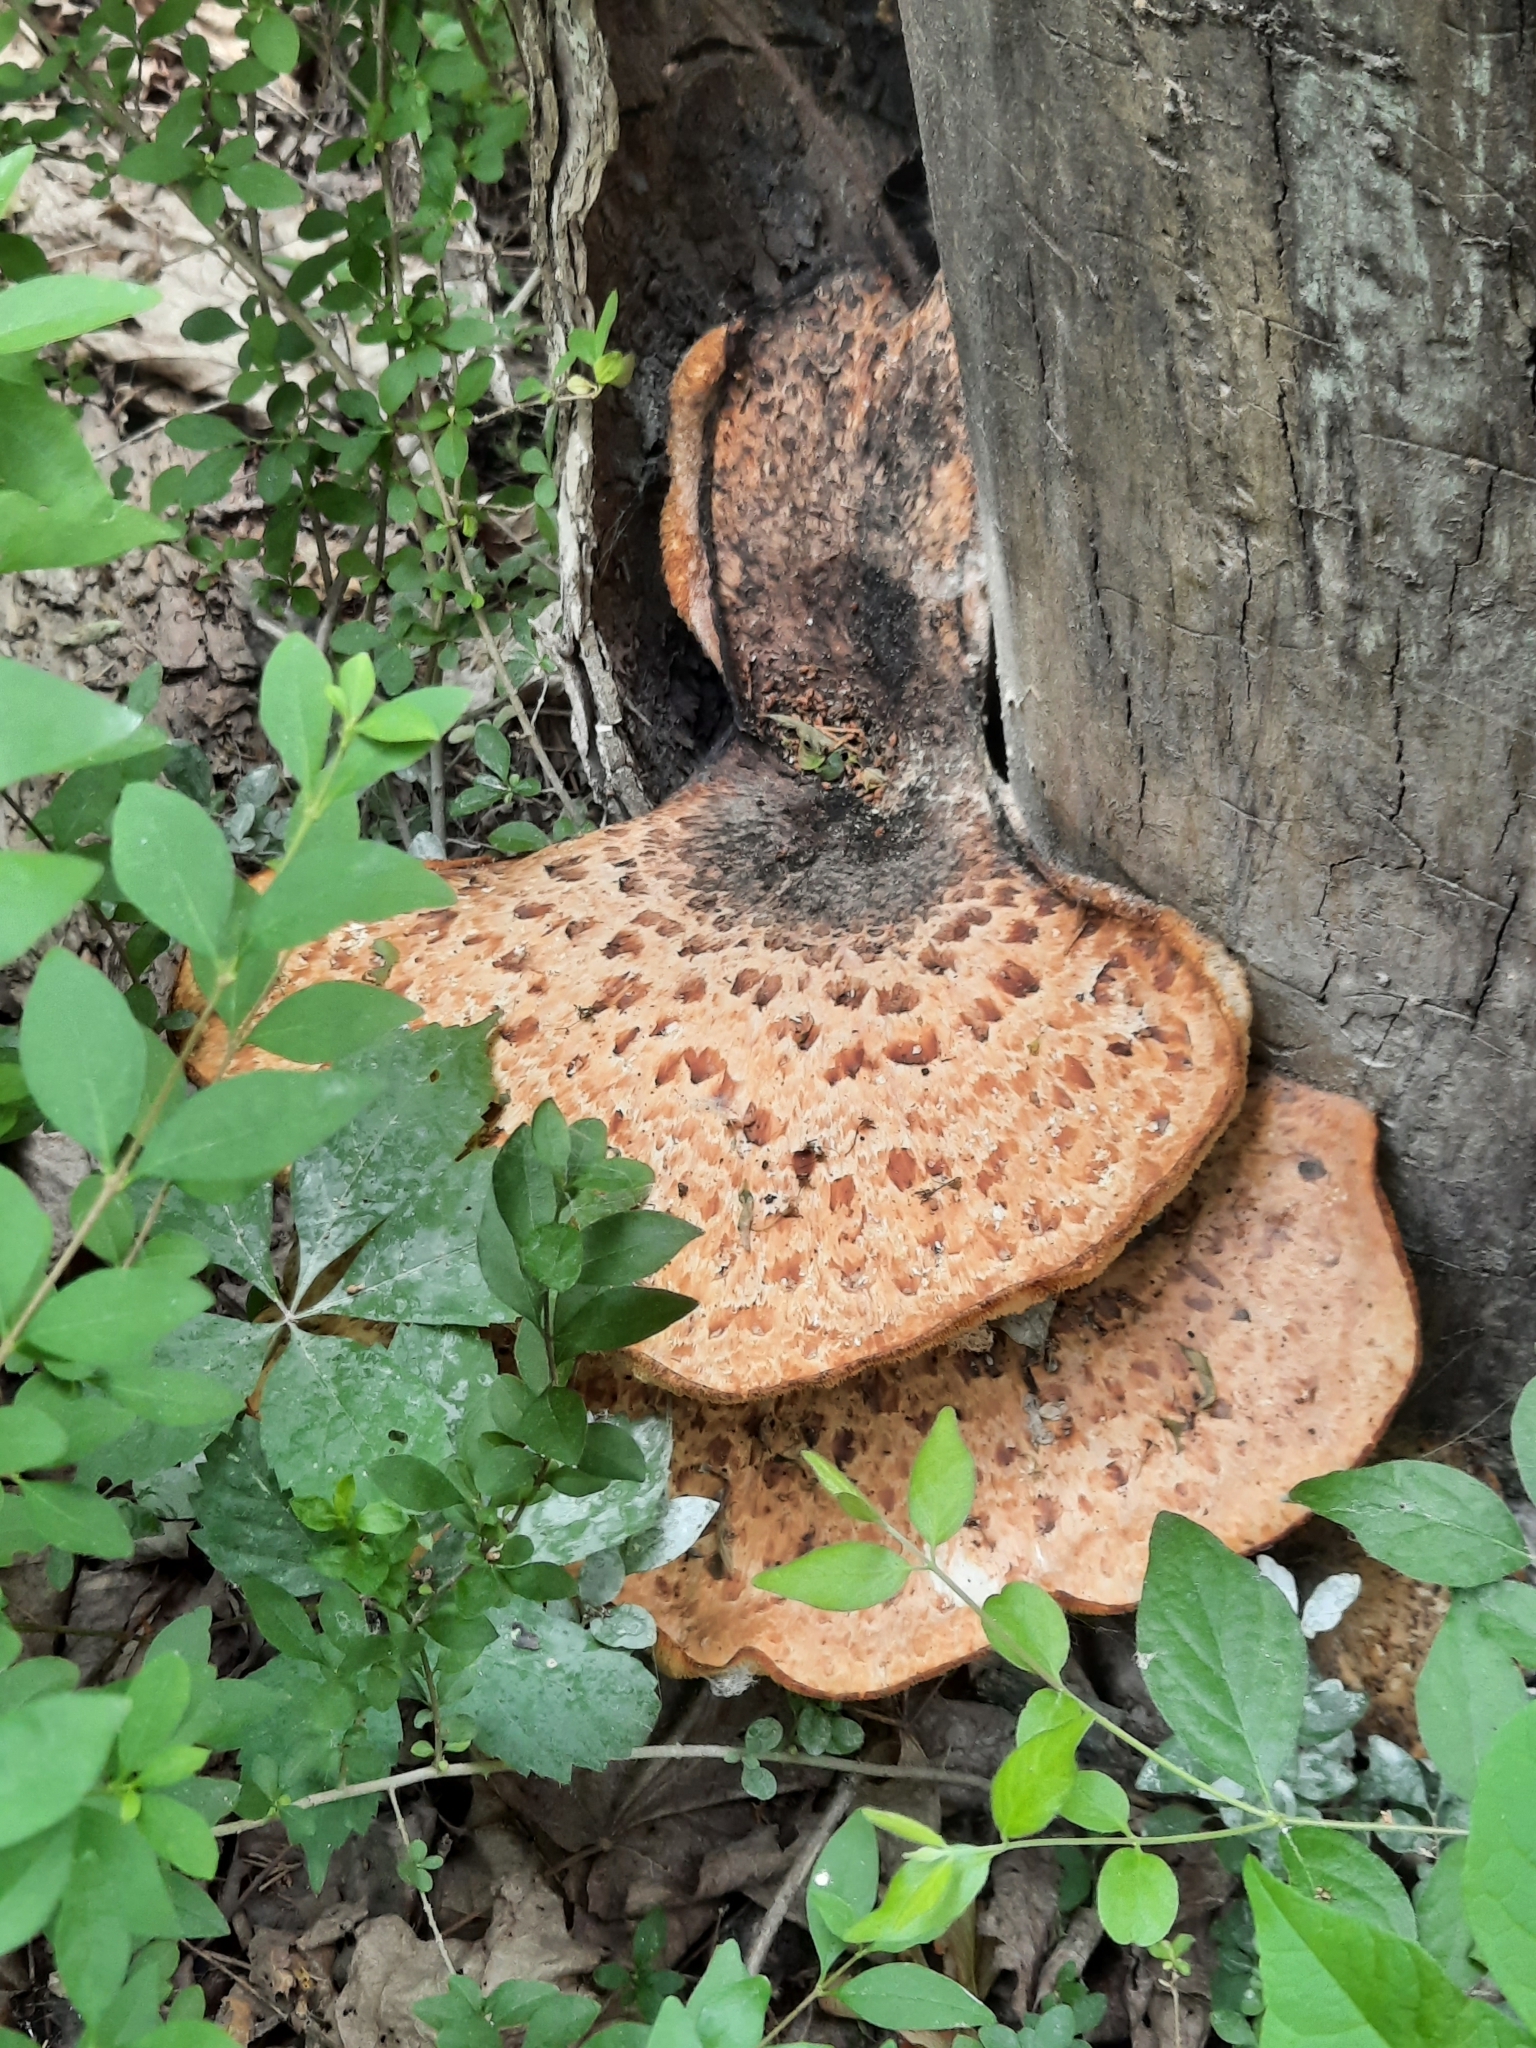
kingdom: Fungi
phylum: Basidiomycota
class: Agaricomycetes
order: Polyporales
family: Polyporaceae
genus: Cerioporus
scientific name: Cerioporus squamosus
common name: Dryad's saddle
